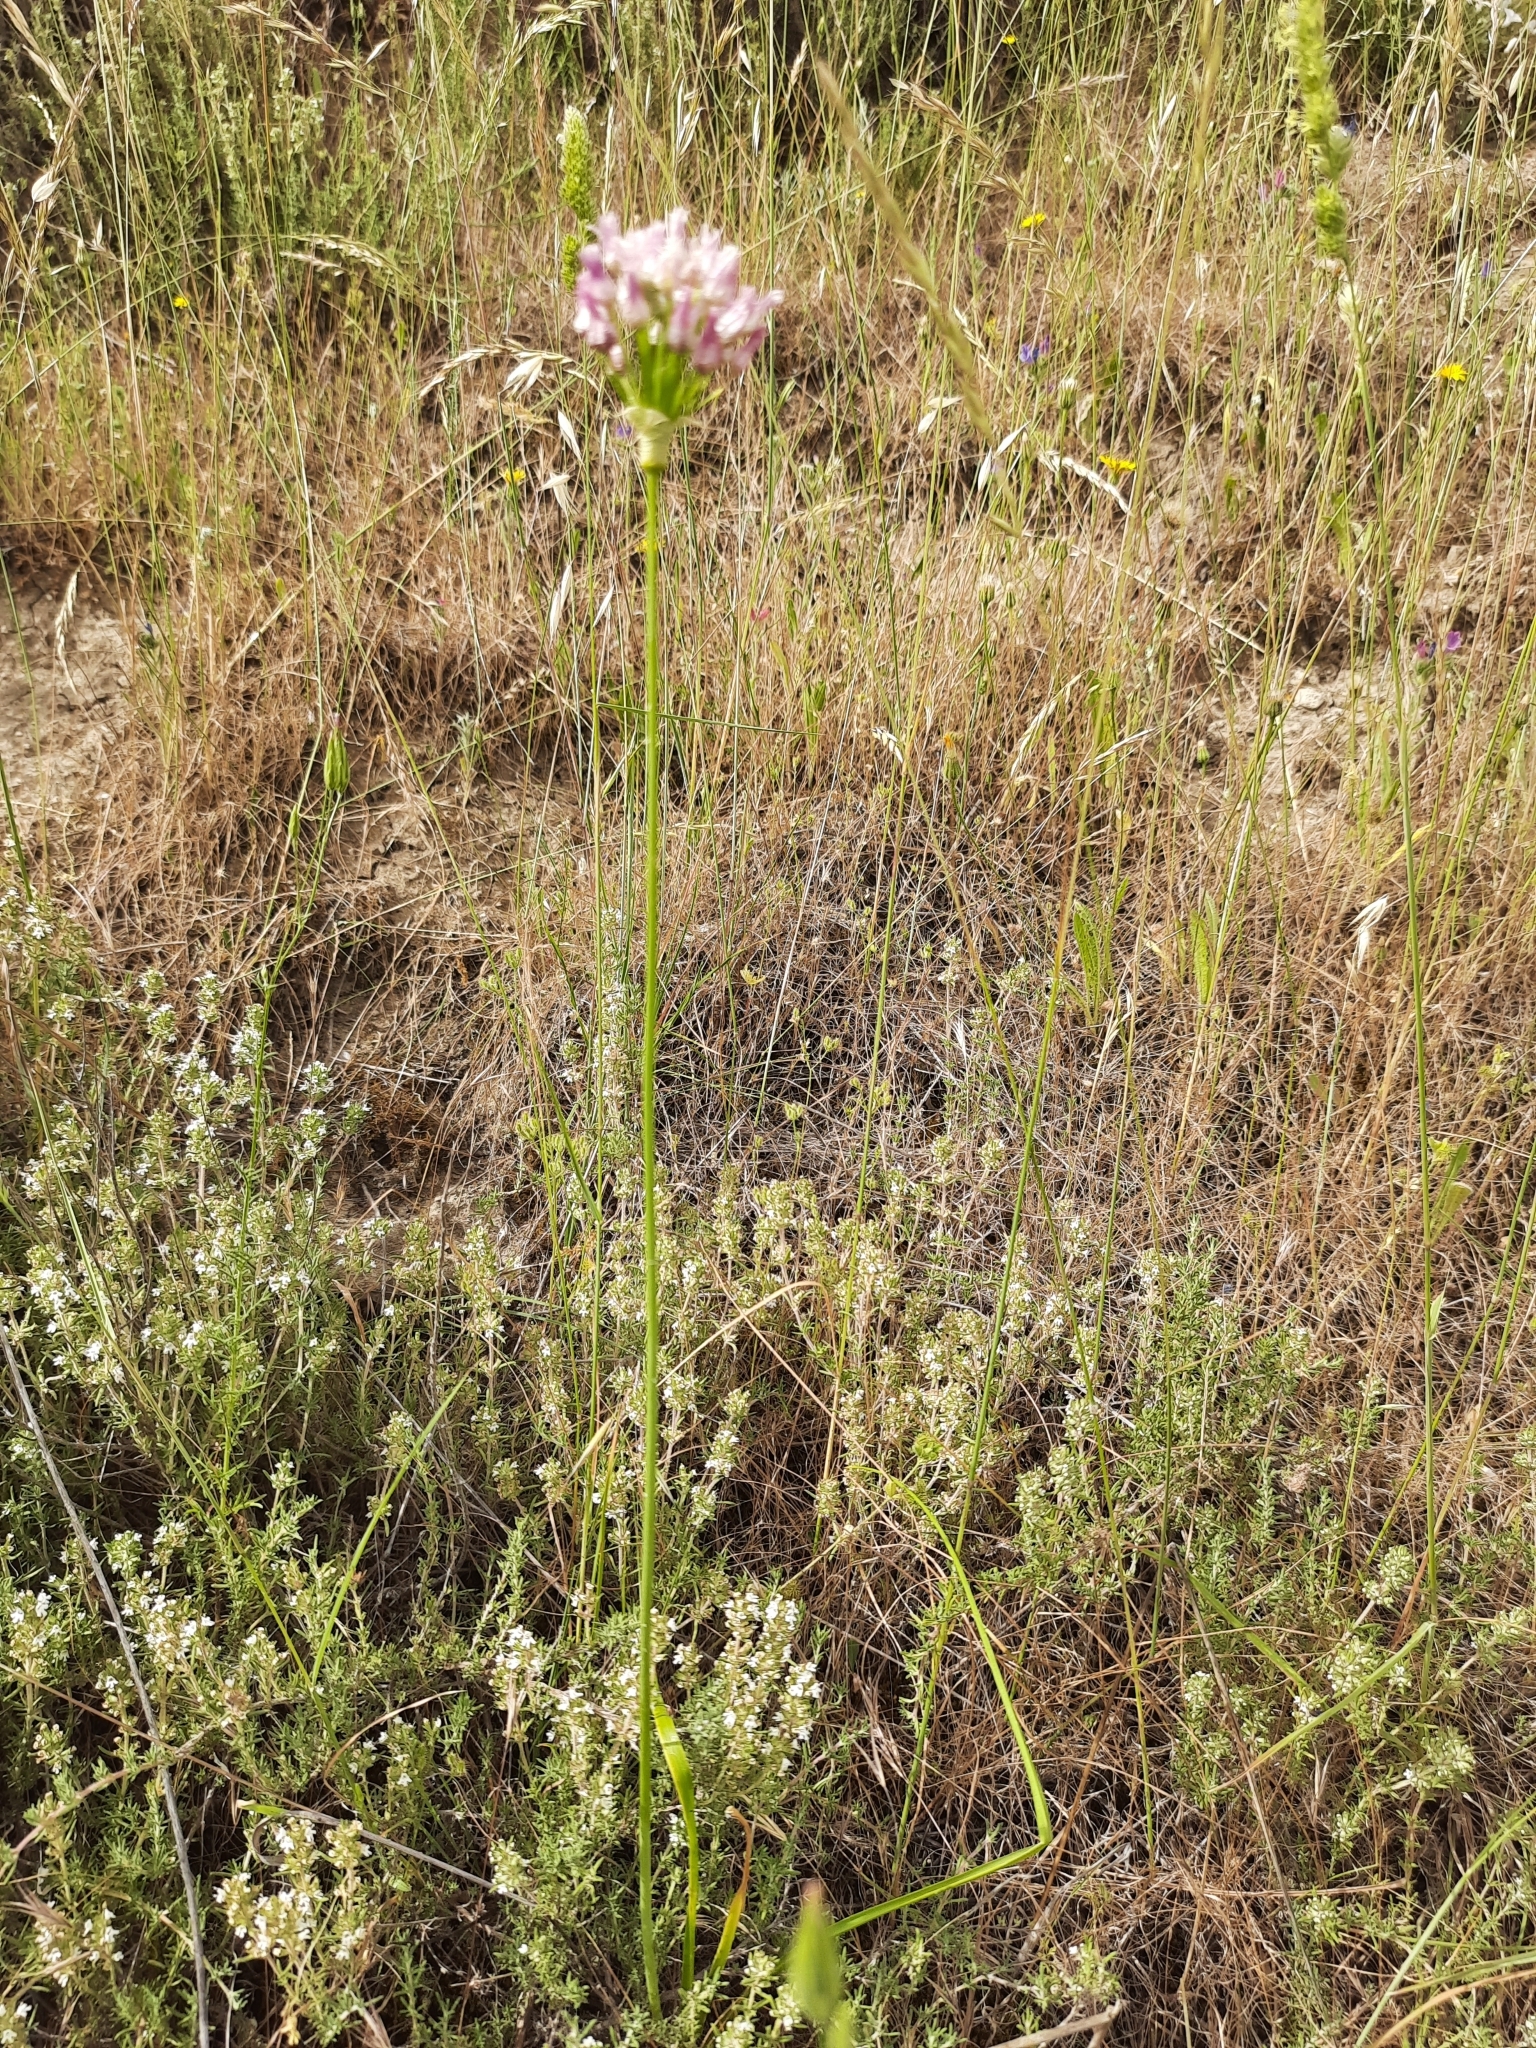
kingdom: Plantae
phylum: Tracheophyta
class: Liliopsida
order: Asparagales
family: Amaryllidaceae
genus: Allium
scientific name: Allium roseum
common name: Rosy garlic
